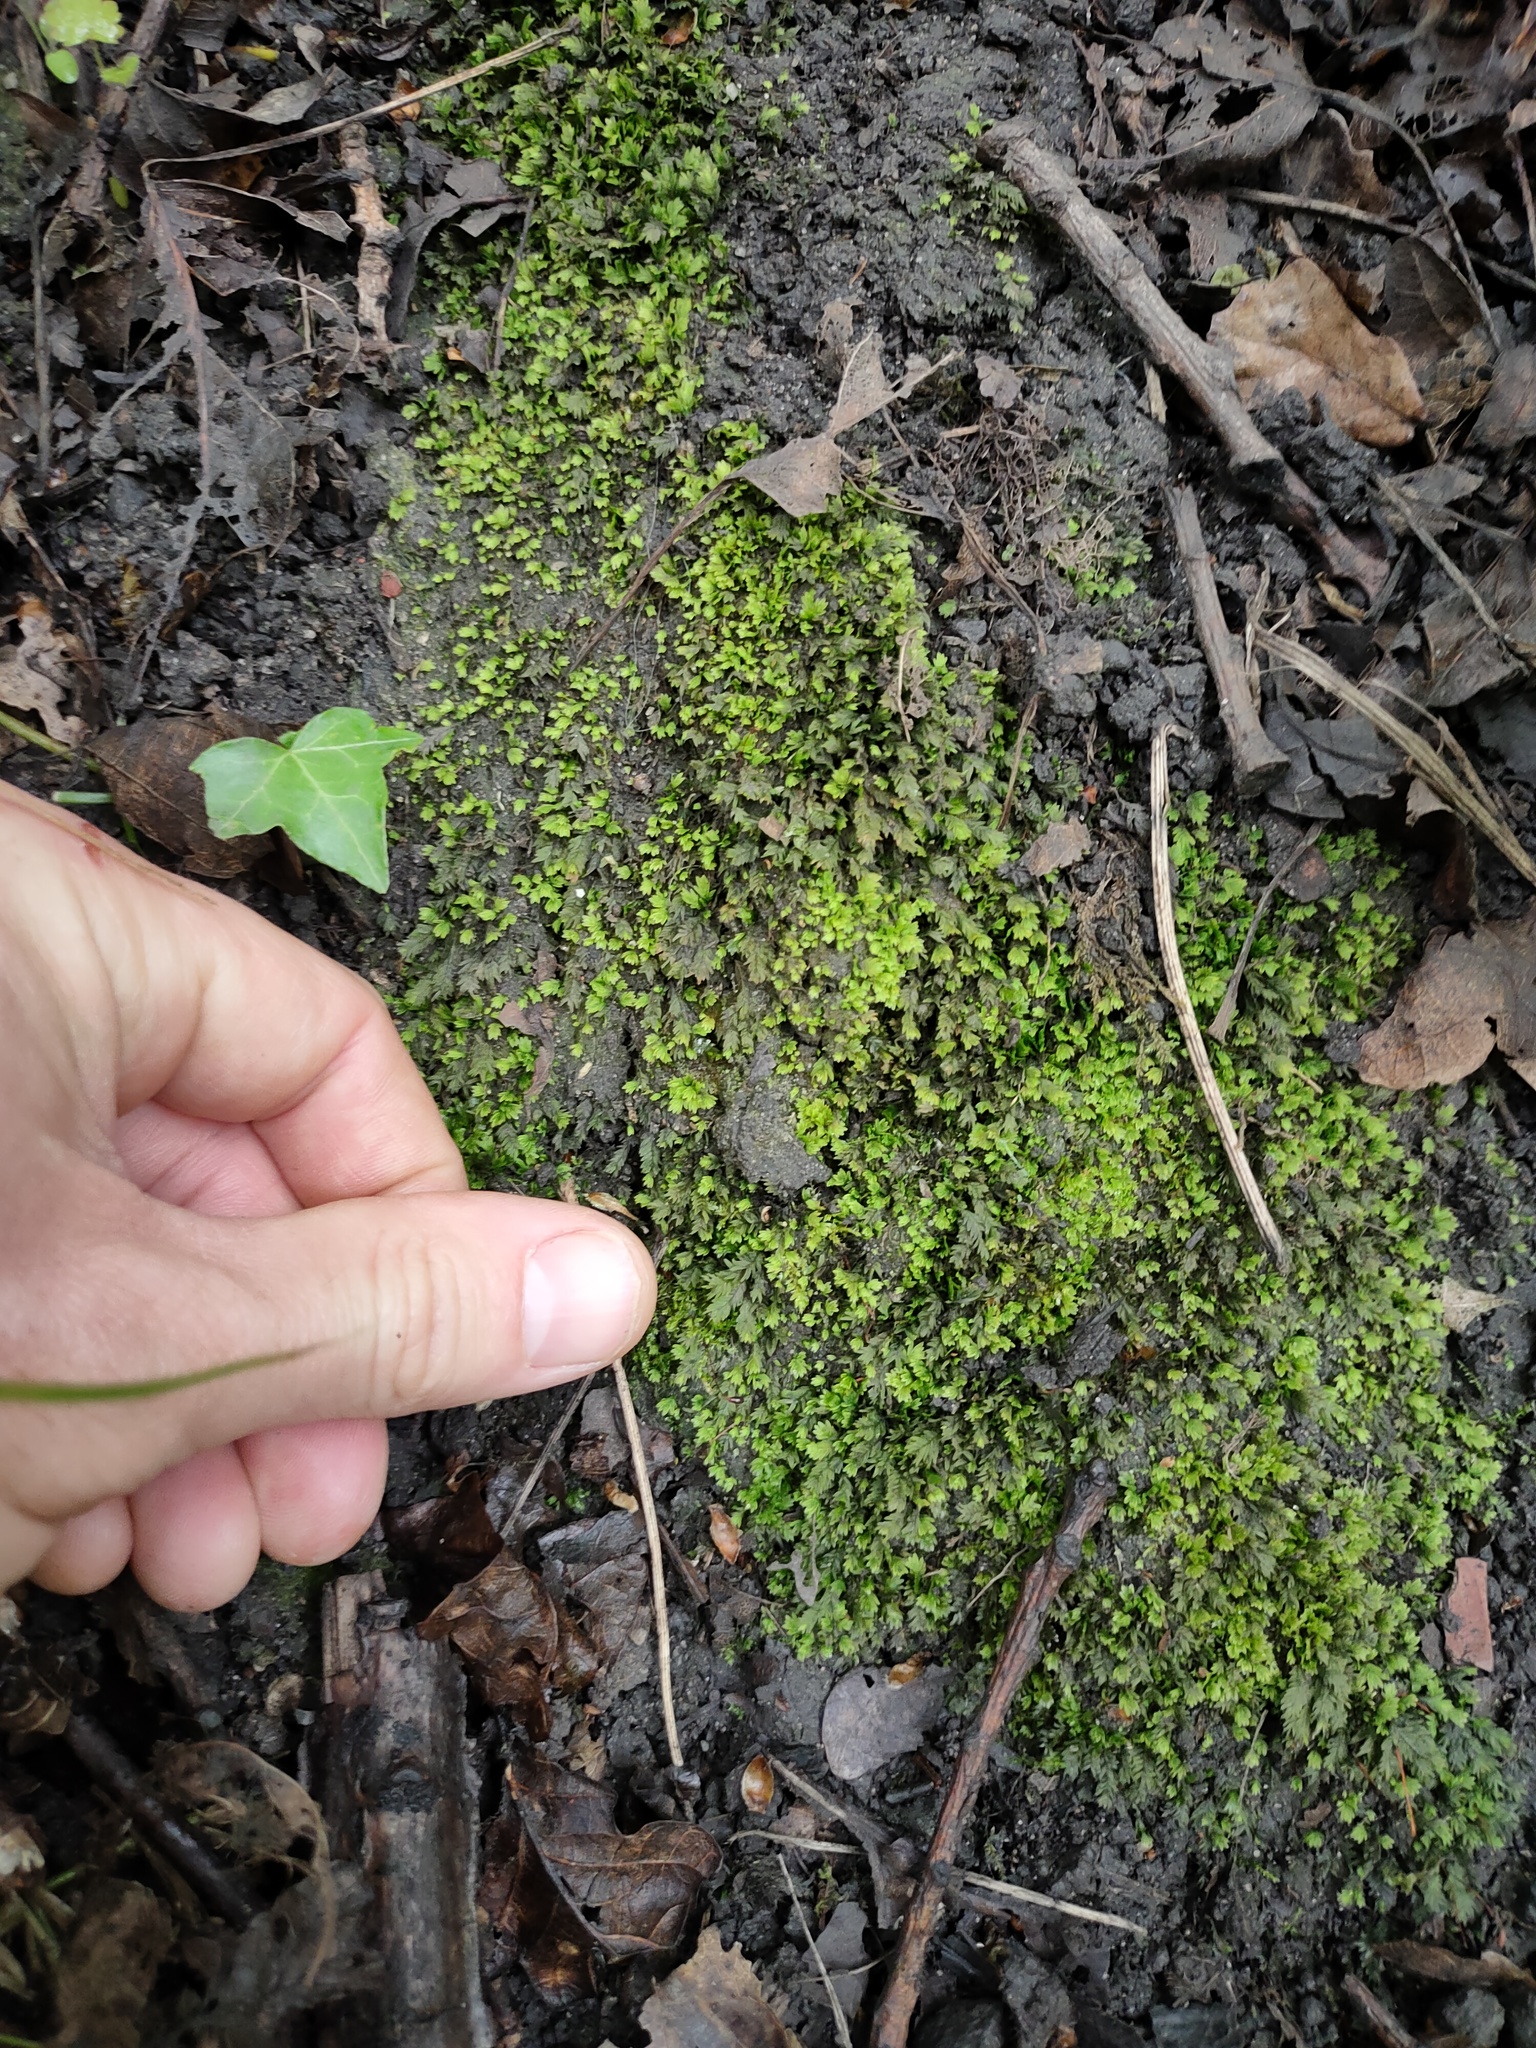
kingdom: Plantae
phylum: Bryophyta
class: Bryopsida
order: Dicranales
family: Fissidentaceae
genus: Fissidens
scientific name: Fissidens taxifolius
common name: Yew-leaved pocket moss
